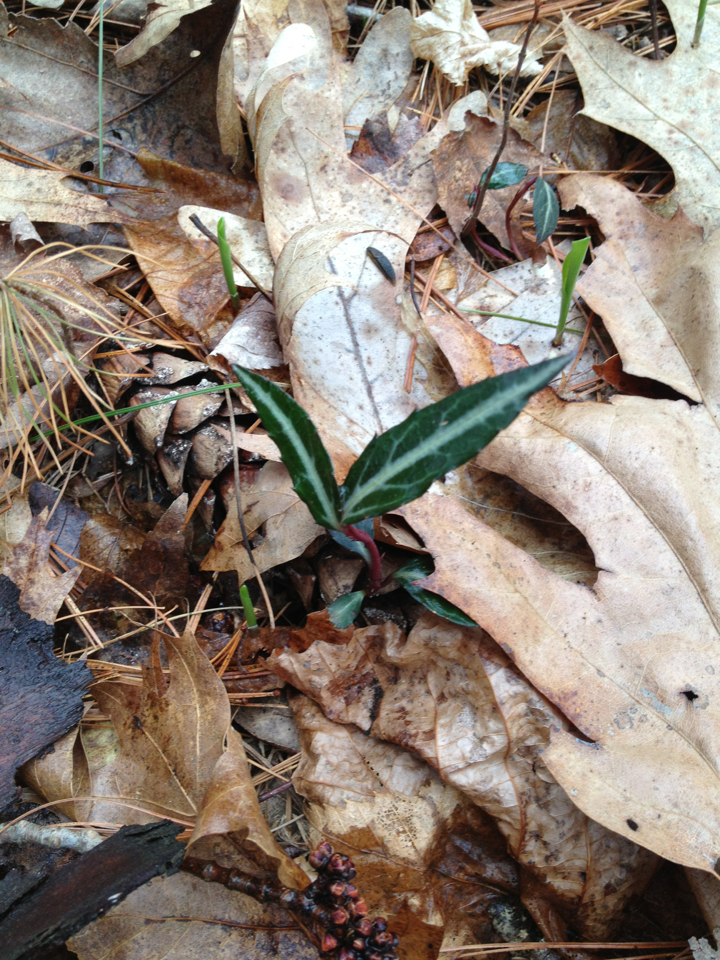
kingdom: Plantae
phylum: Tracheophyta
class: Magnoliopsida
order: Ericales
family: Ericaceae
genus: Chimaphila
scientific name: Chimaphila maculata
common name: Spotted pipsissewa
